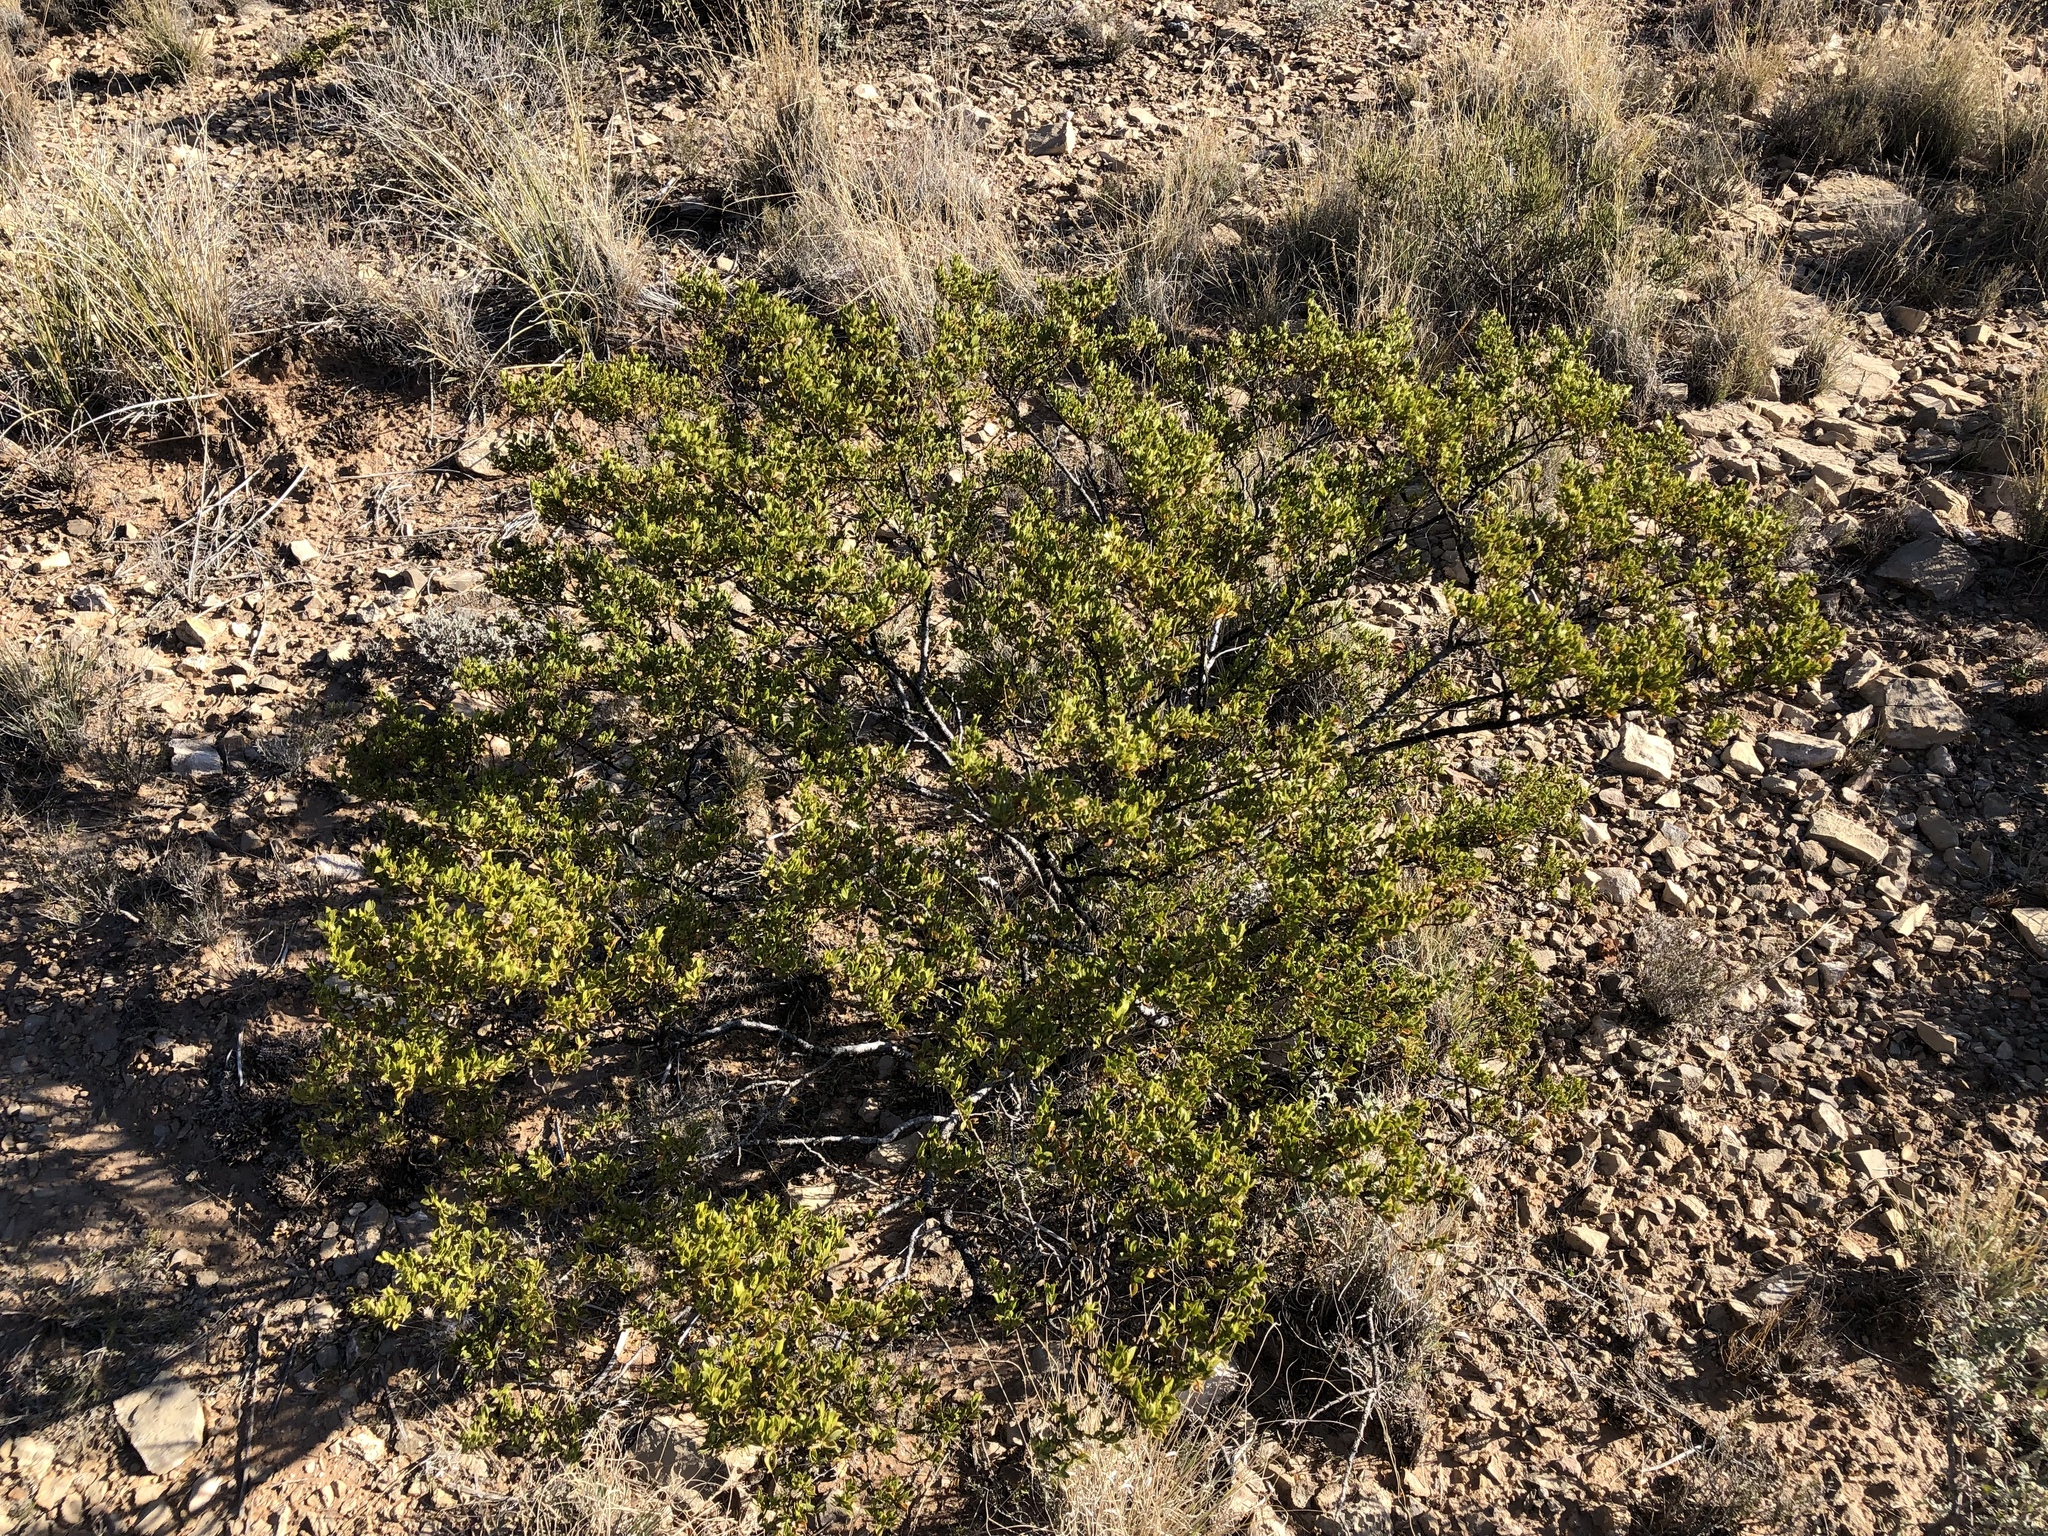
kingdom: Plantae
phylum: Tracheophyta
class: Magnoliopsida
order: Zygophyllales
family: Zygophyllaceae
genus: Larrea
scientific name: Larrea tridentata
